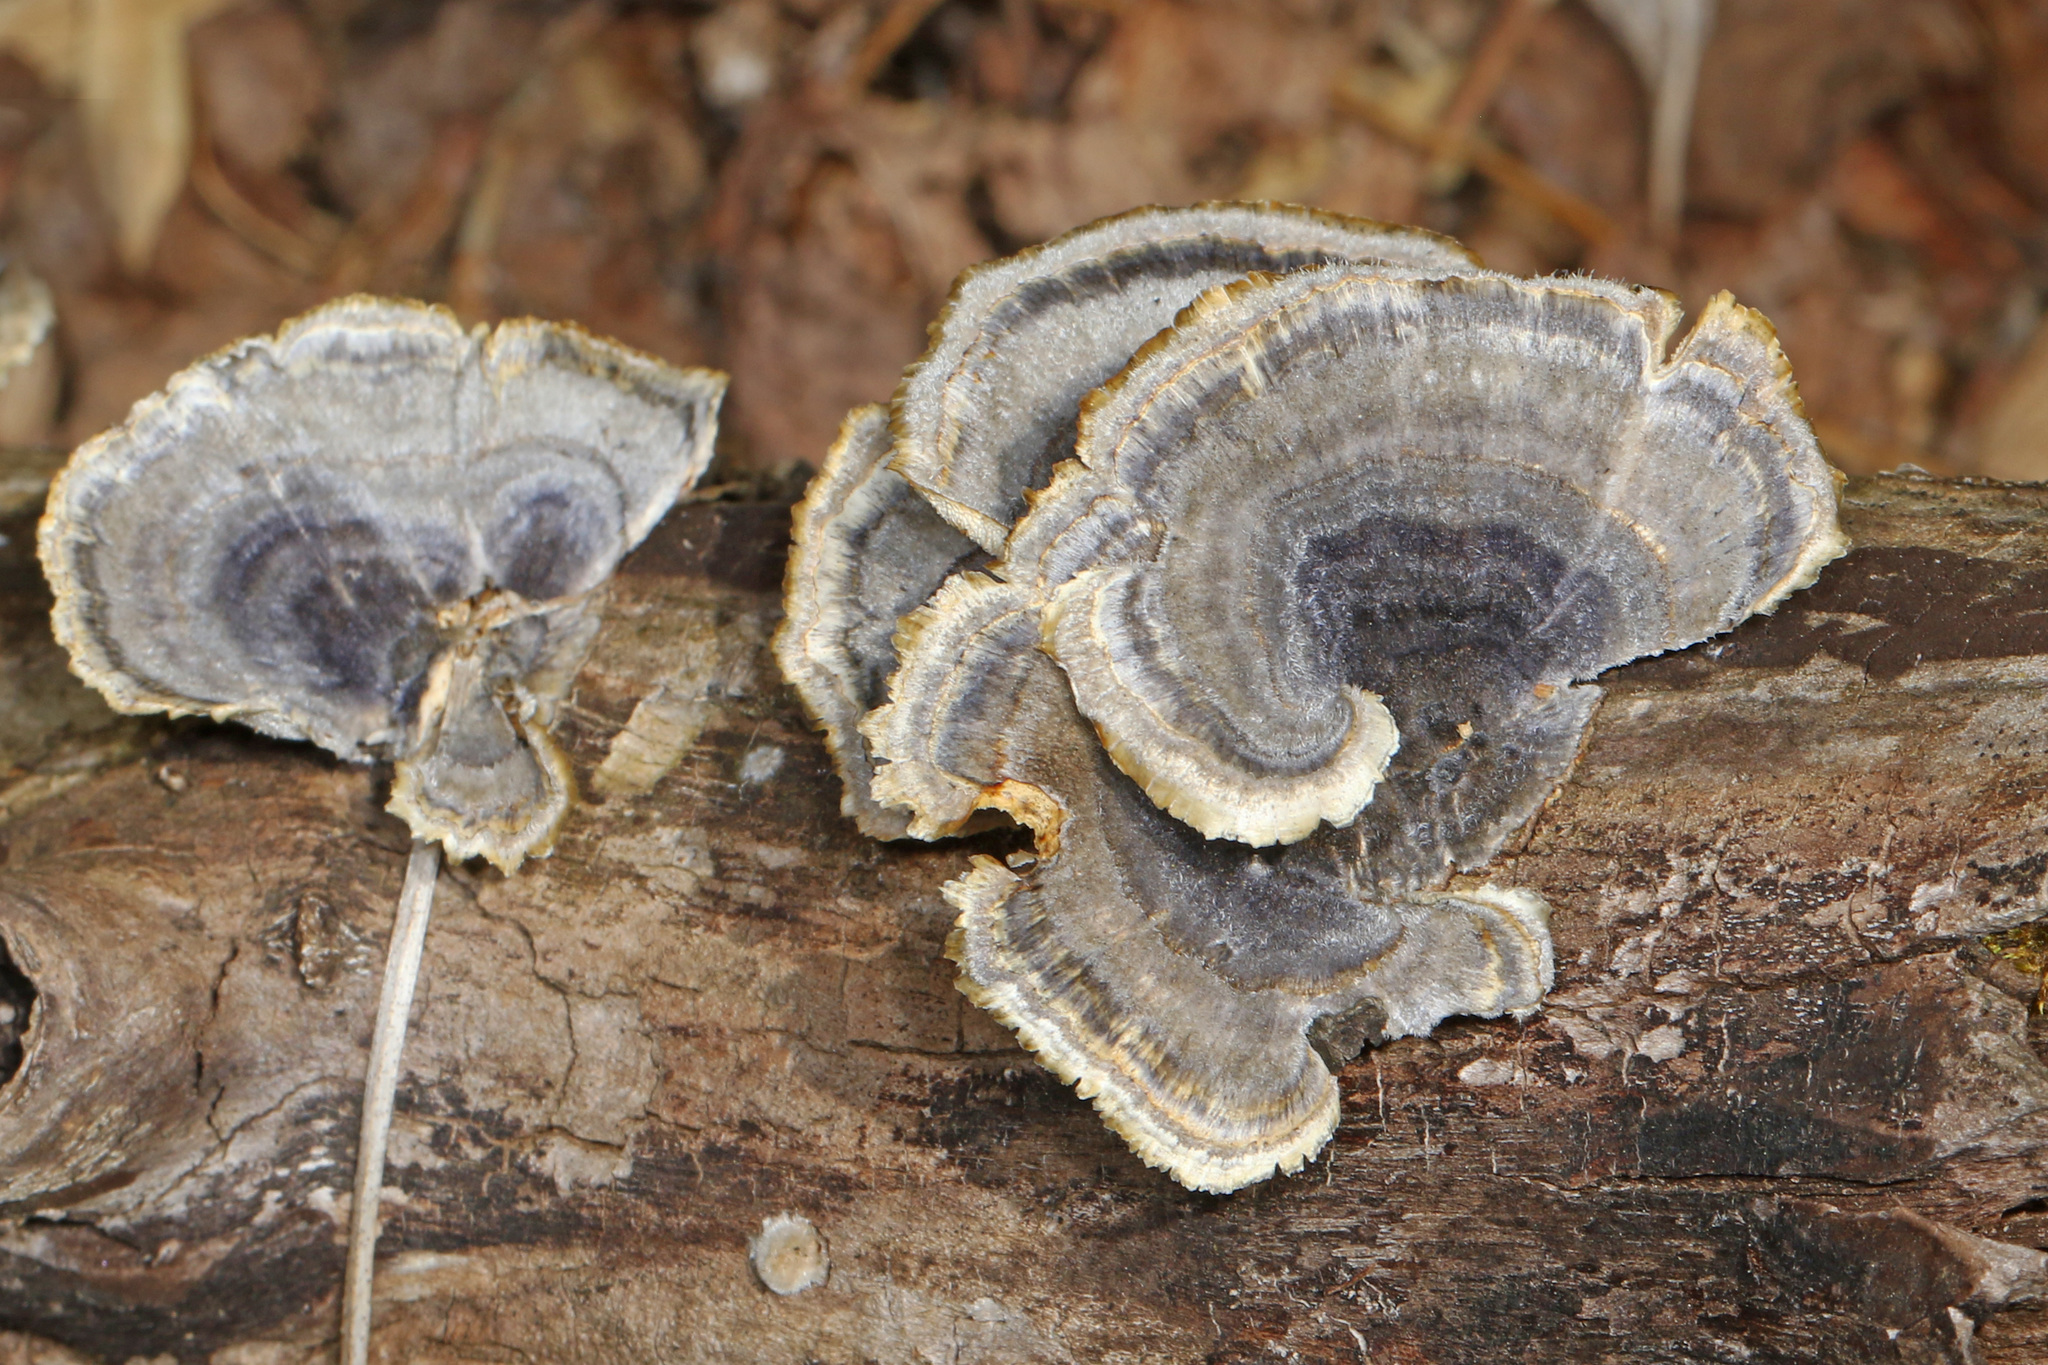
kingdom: Fungi
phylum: Basidiomycota
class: Agaricomycetes
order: Polyporales
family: Polyporaceae
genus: Trametes
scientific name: Trametes versicolor
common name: Turkeytail
